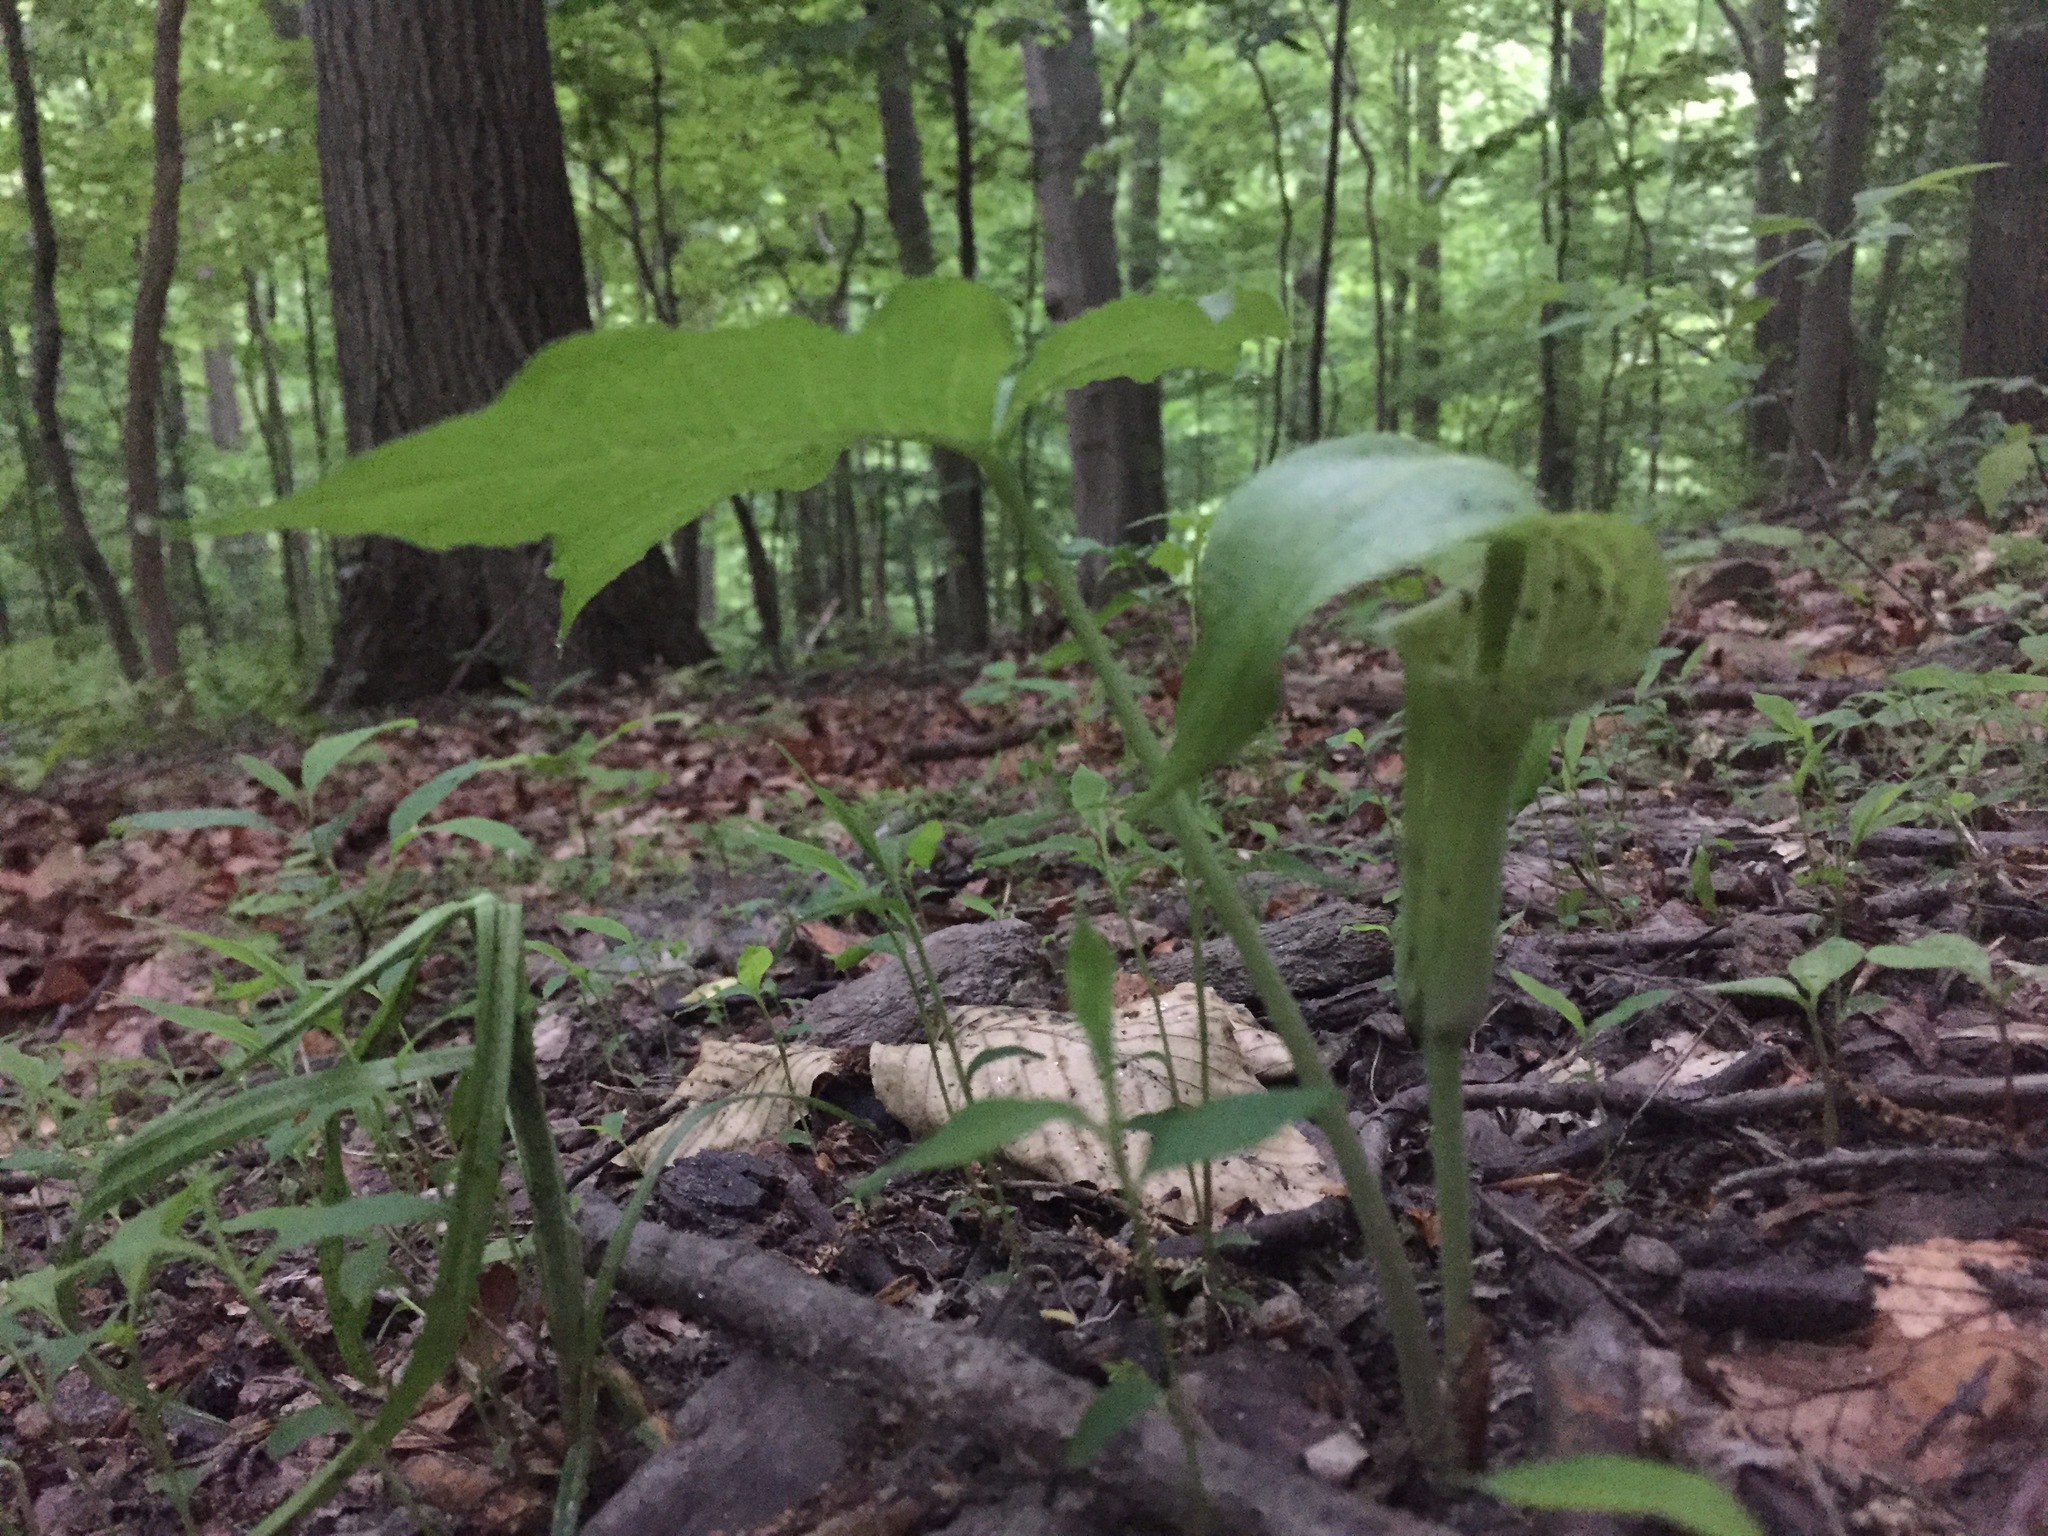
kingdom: Plantae
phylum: Tracheophyta
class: Liliopsida
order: Alismatales
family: Araceae
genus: Arisaema
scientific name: Arisaema triphyllum
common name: Jack-in-the-pulpit
